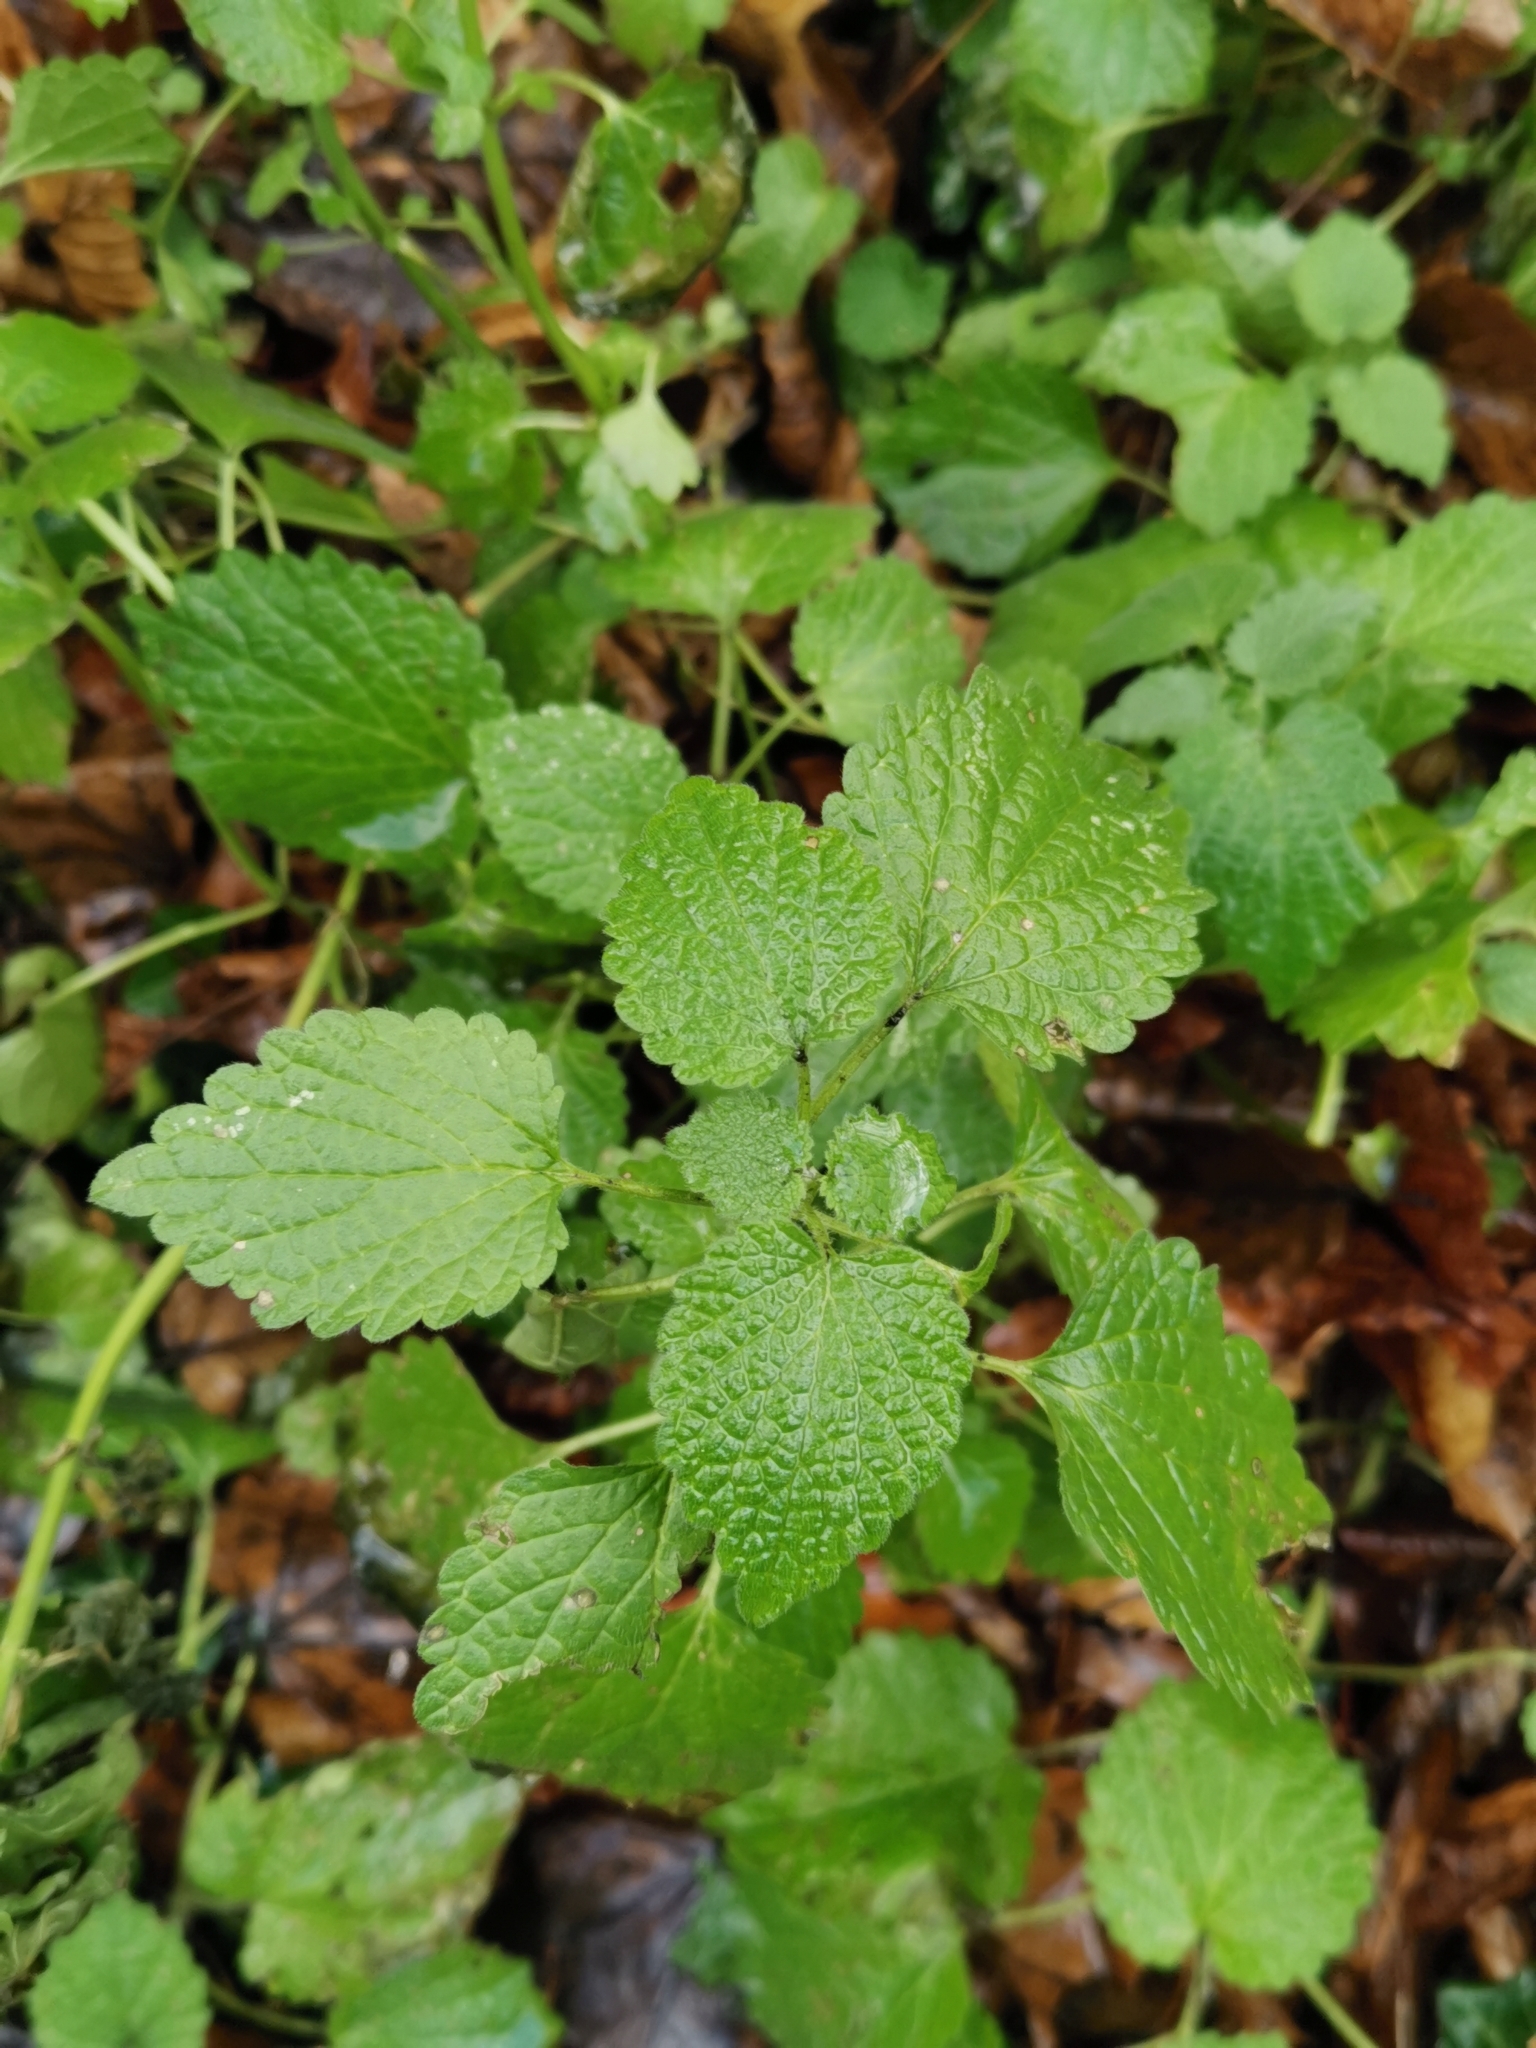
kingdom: Plantae
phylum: Tracheophyta
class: Magnoliopsida
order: Lamiales
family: Lamiaceae
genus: Ballota
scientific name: Ballota nigra
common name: Black horehound
